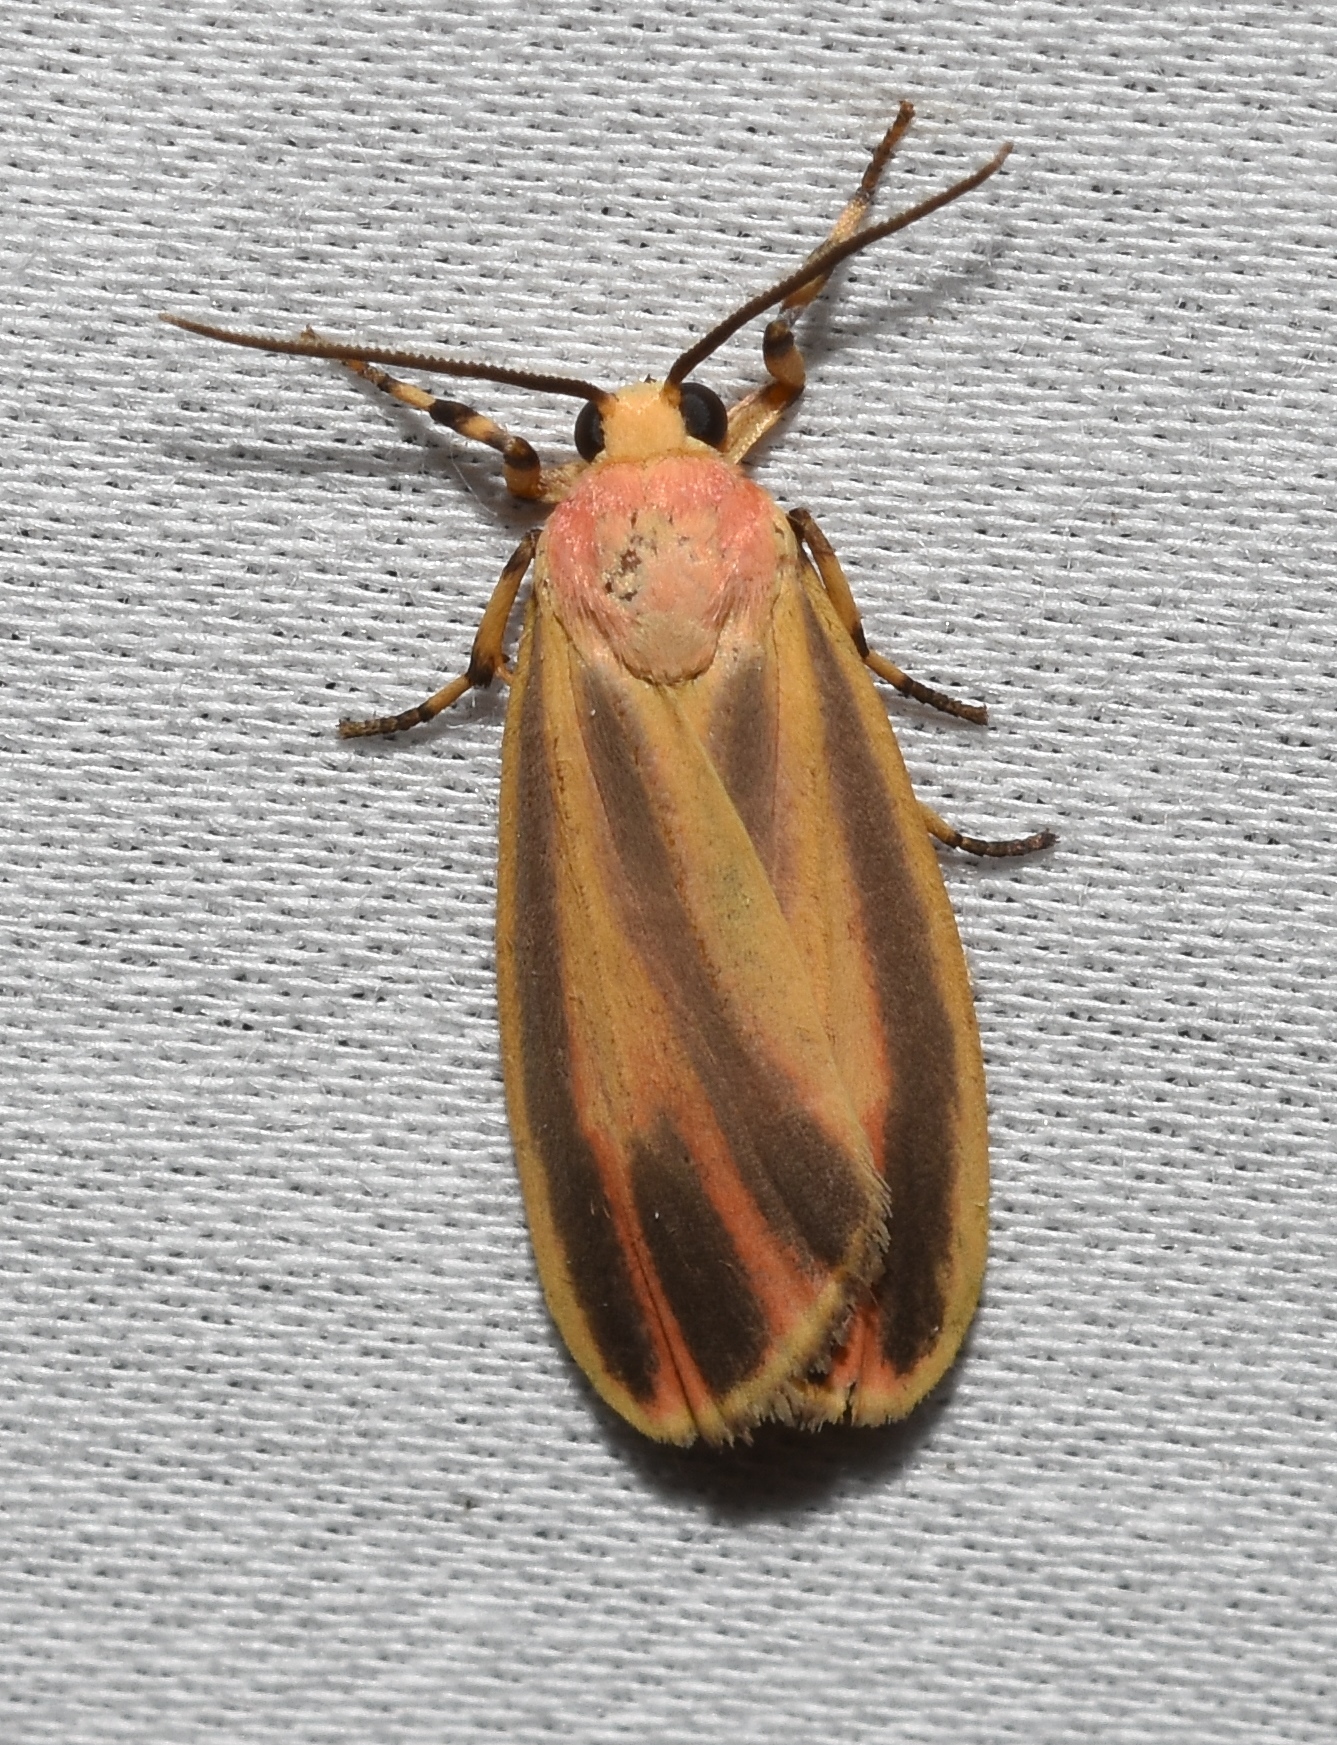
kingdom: Animalia
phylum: Arthropoda
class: Insecta
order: Lepidoptera
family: Erebidae
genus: Hypoprepia
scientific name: Hypoprepia fucosa
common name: Painted lichen moth
